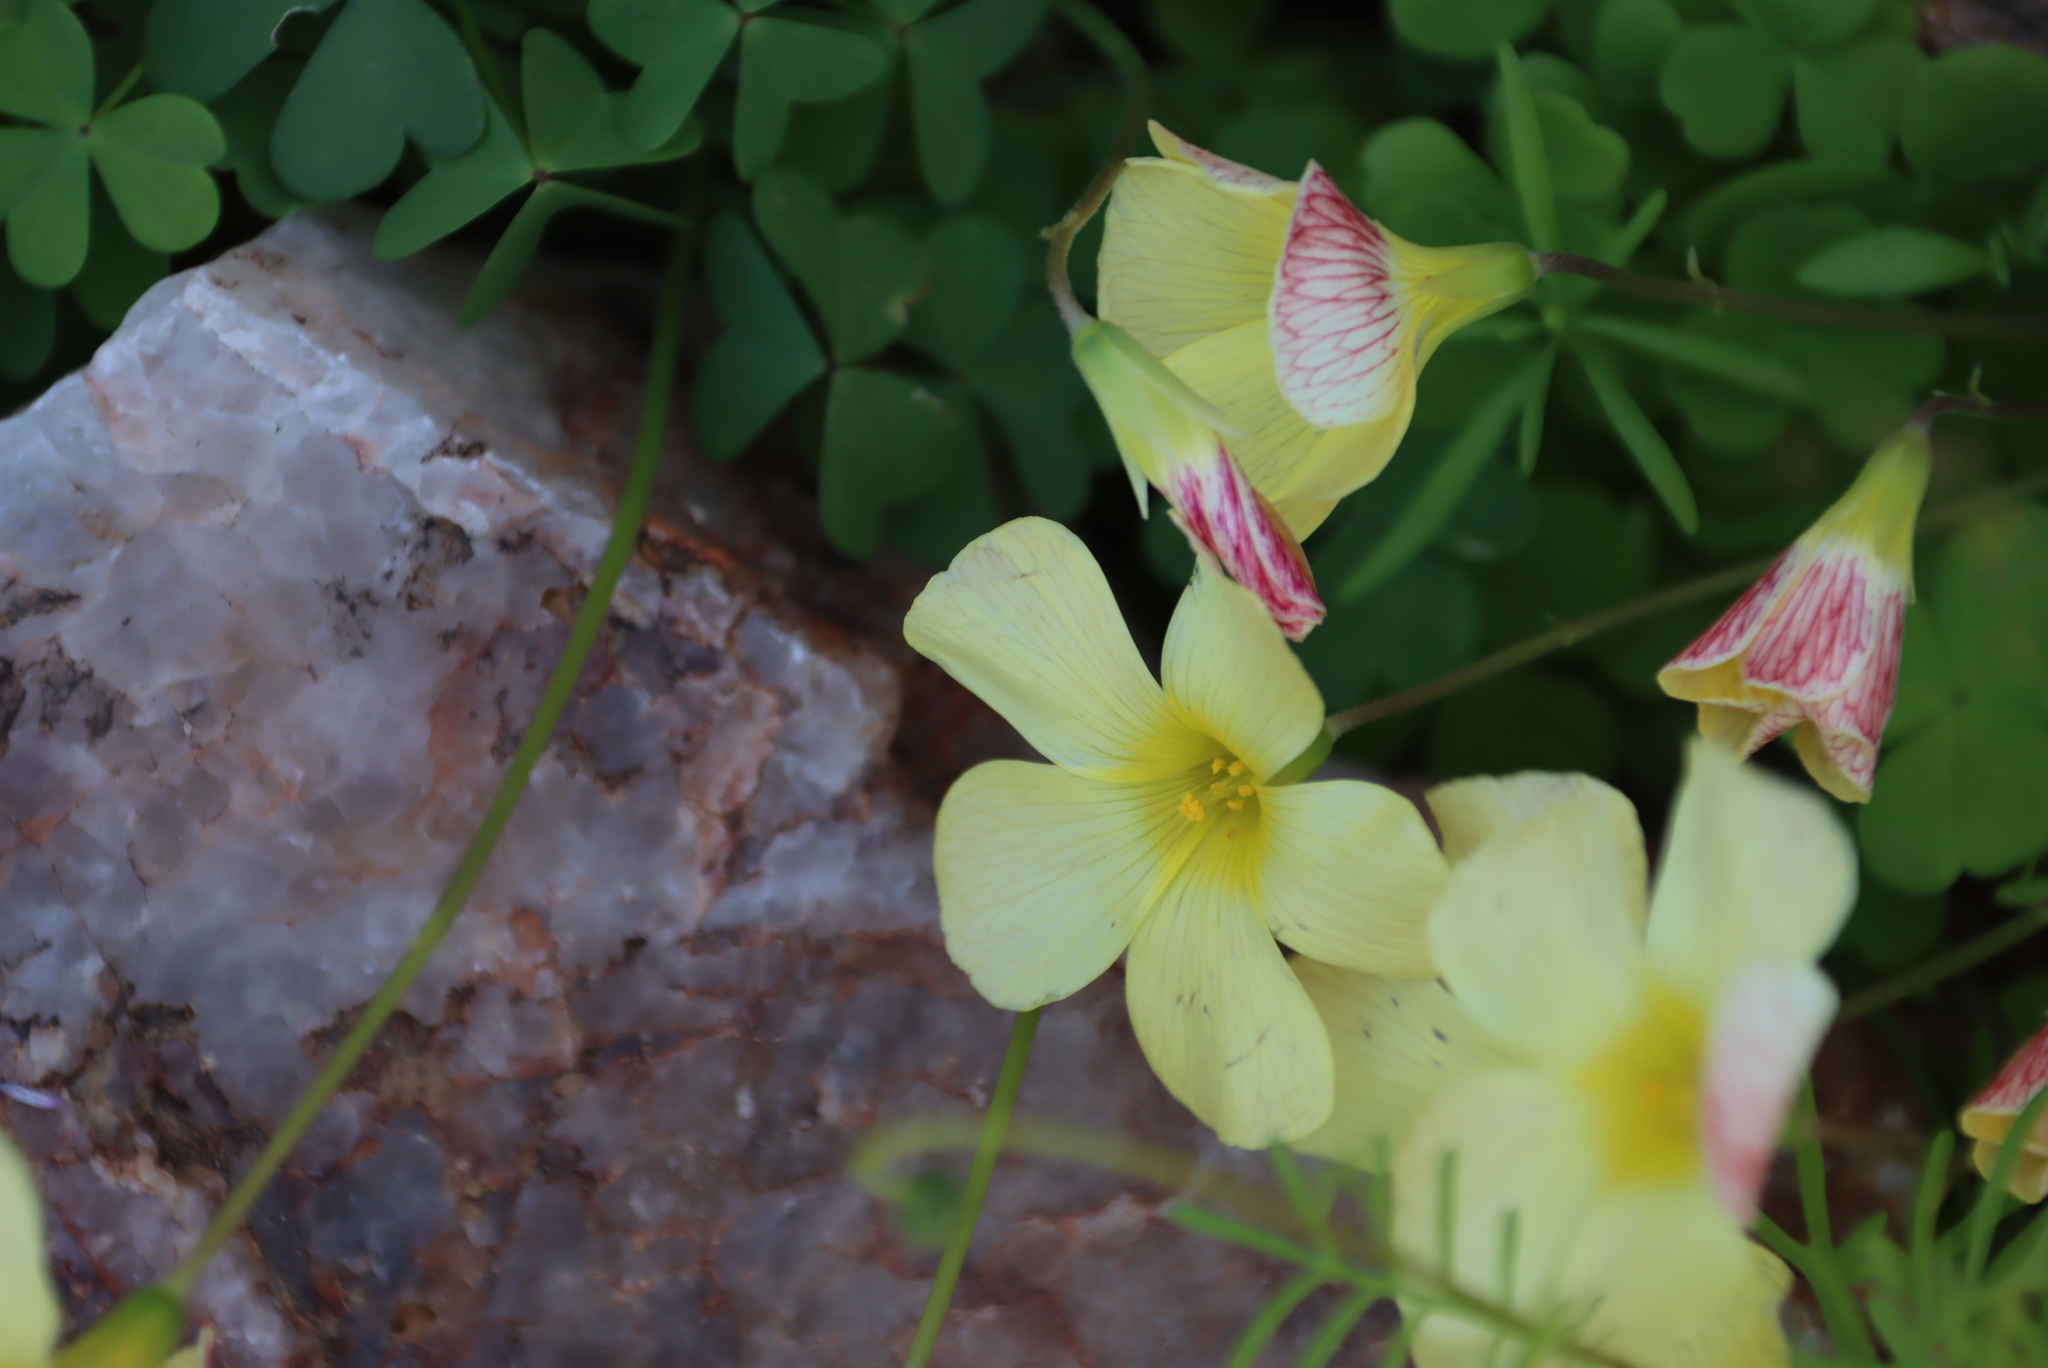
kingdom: Plantae
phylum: Tracheophyta
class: Magnoliopsida
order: Oxalidales
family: Oxalidaceae
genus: Oxalis
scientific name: Oxalis obtusa
